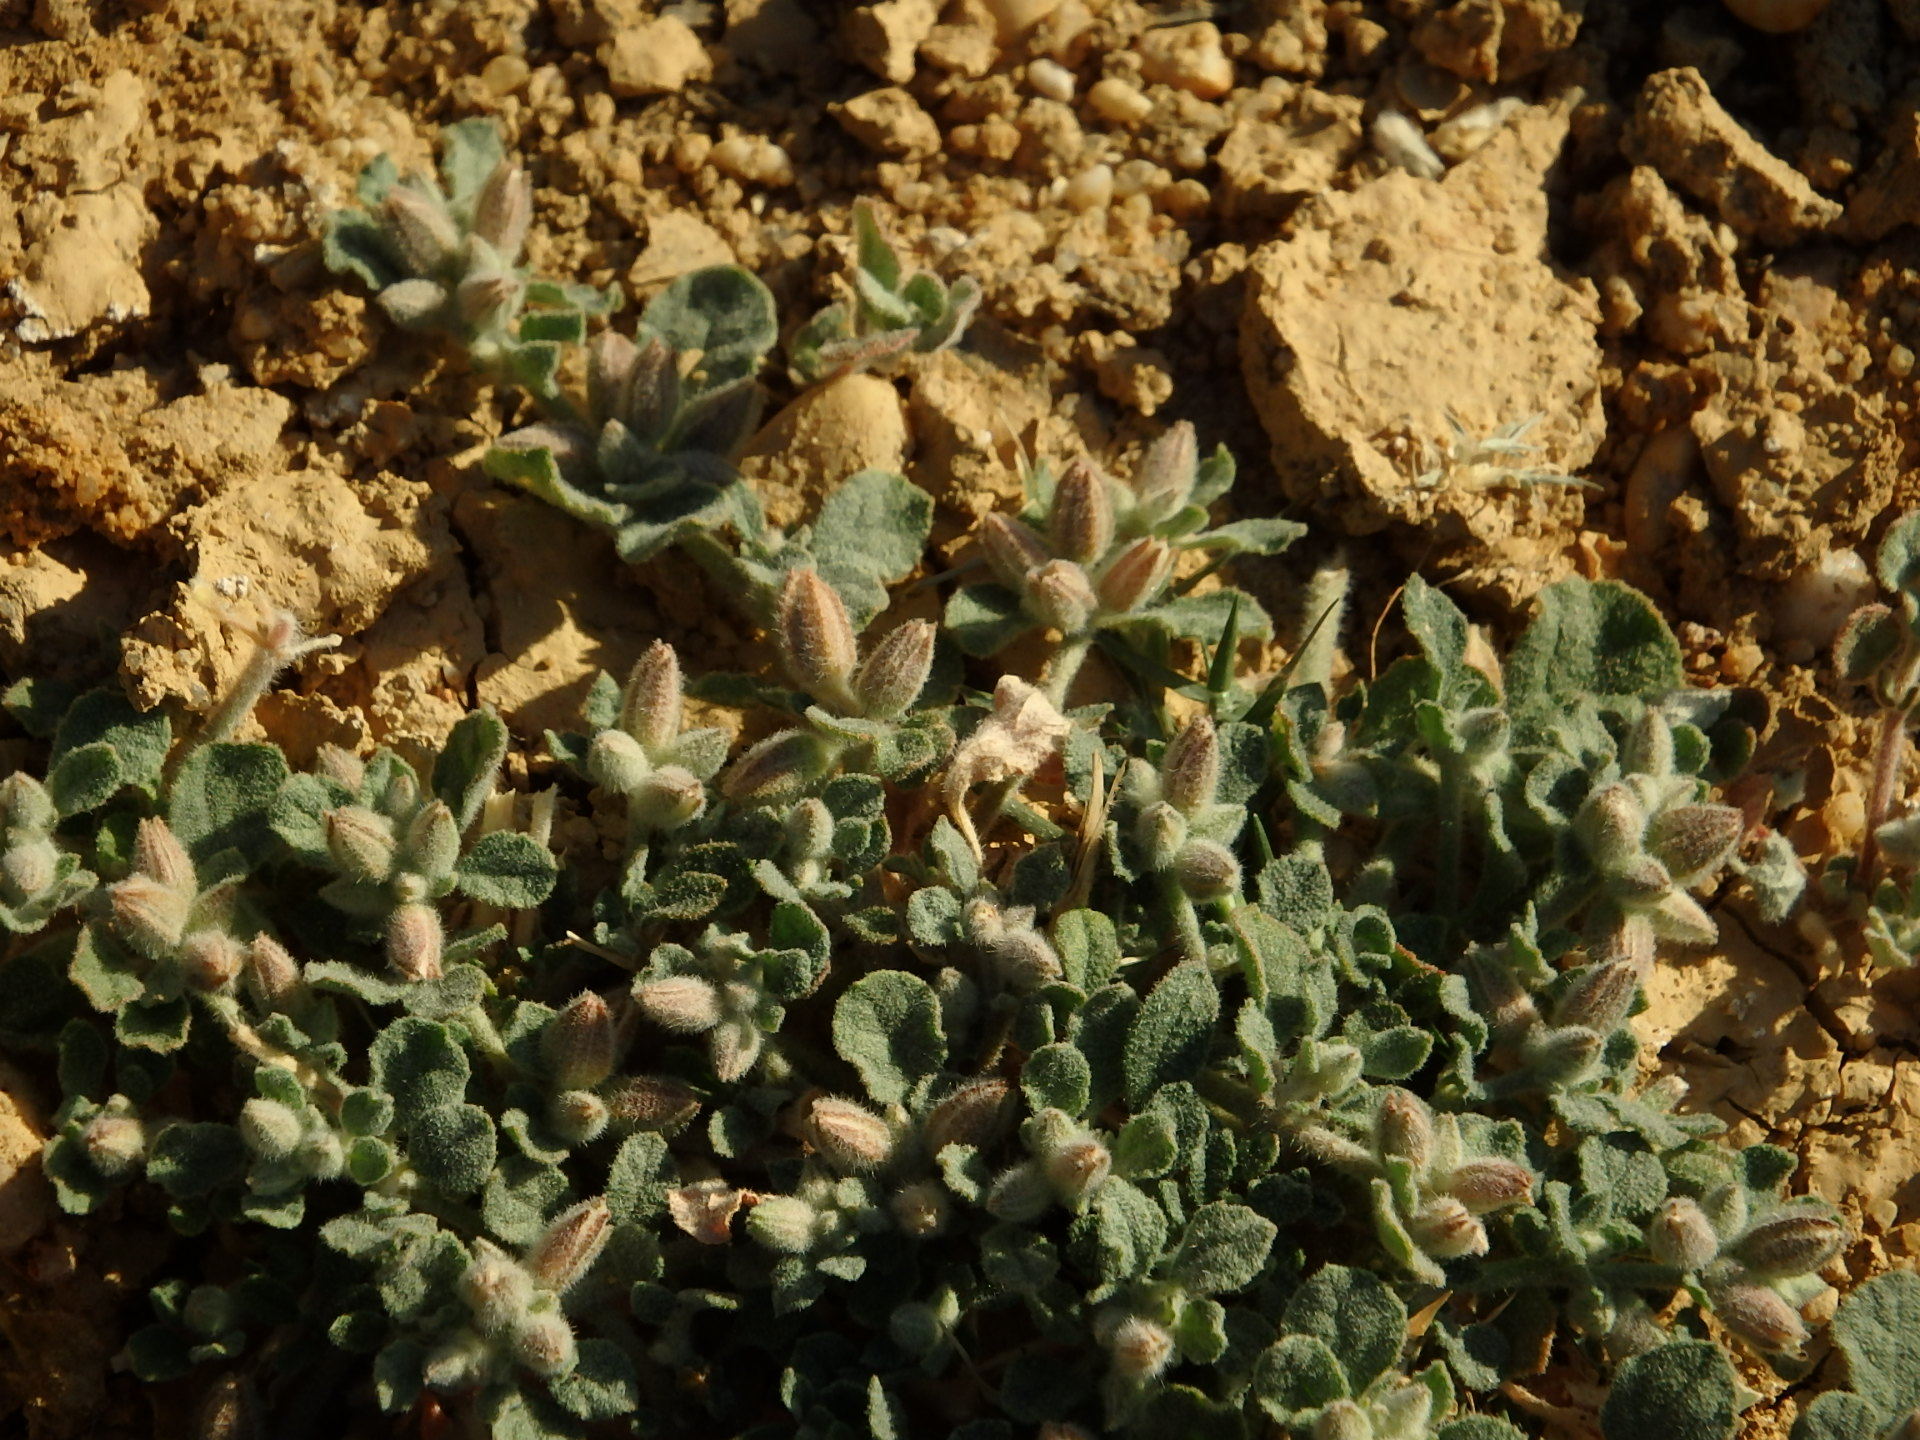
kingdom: Plantae
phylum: Tracheophyta
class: Magnoliopsida
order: Caryophyllales
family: Molluginaceae
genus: Glinus
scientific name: Glinus lotoides
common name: Lotus sweetjuice
